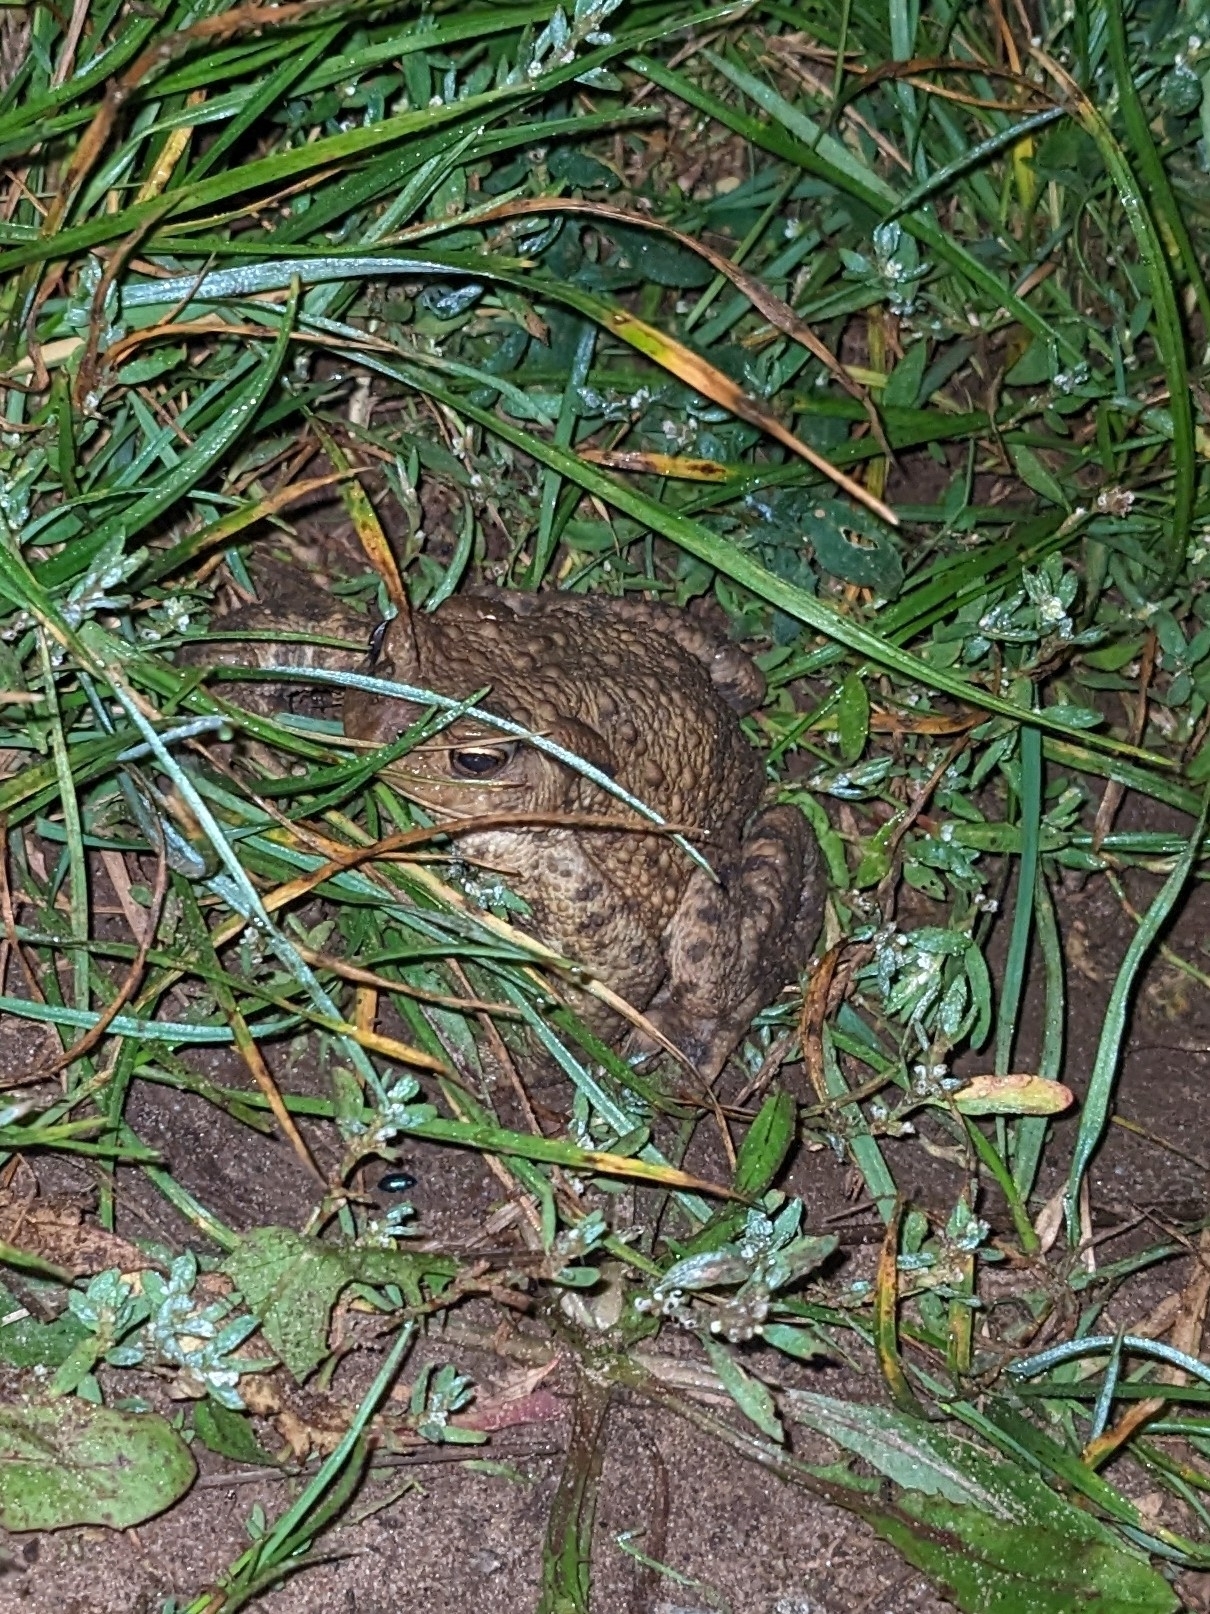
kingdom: Animalia
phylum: Chordata
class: Amphibia
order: Anura
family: Bufonidae
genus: Bufo
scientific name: Bufo bufo
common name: Common toad
